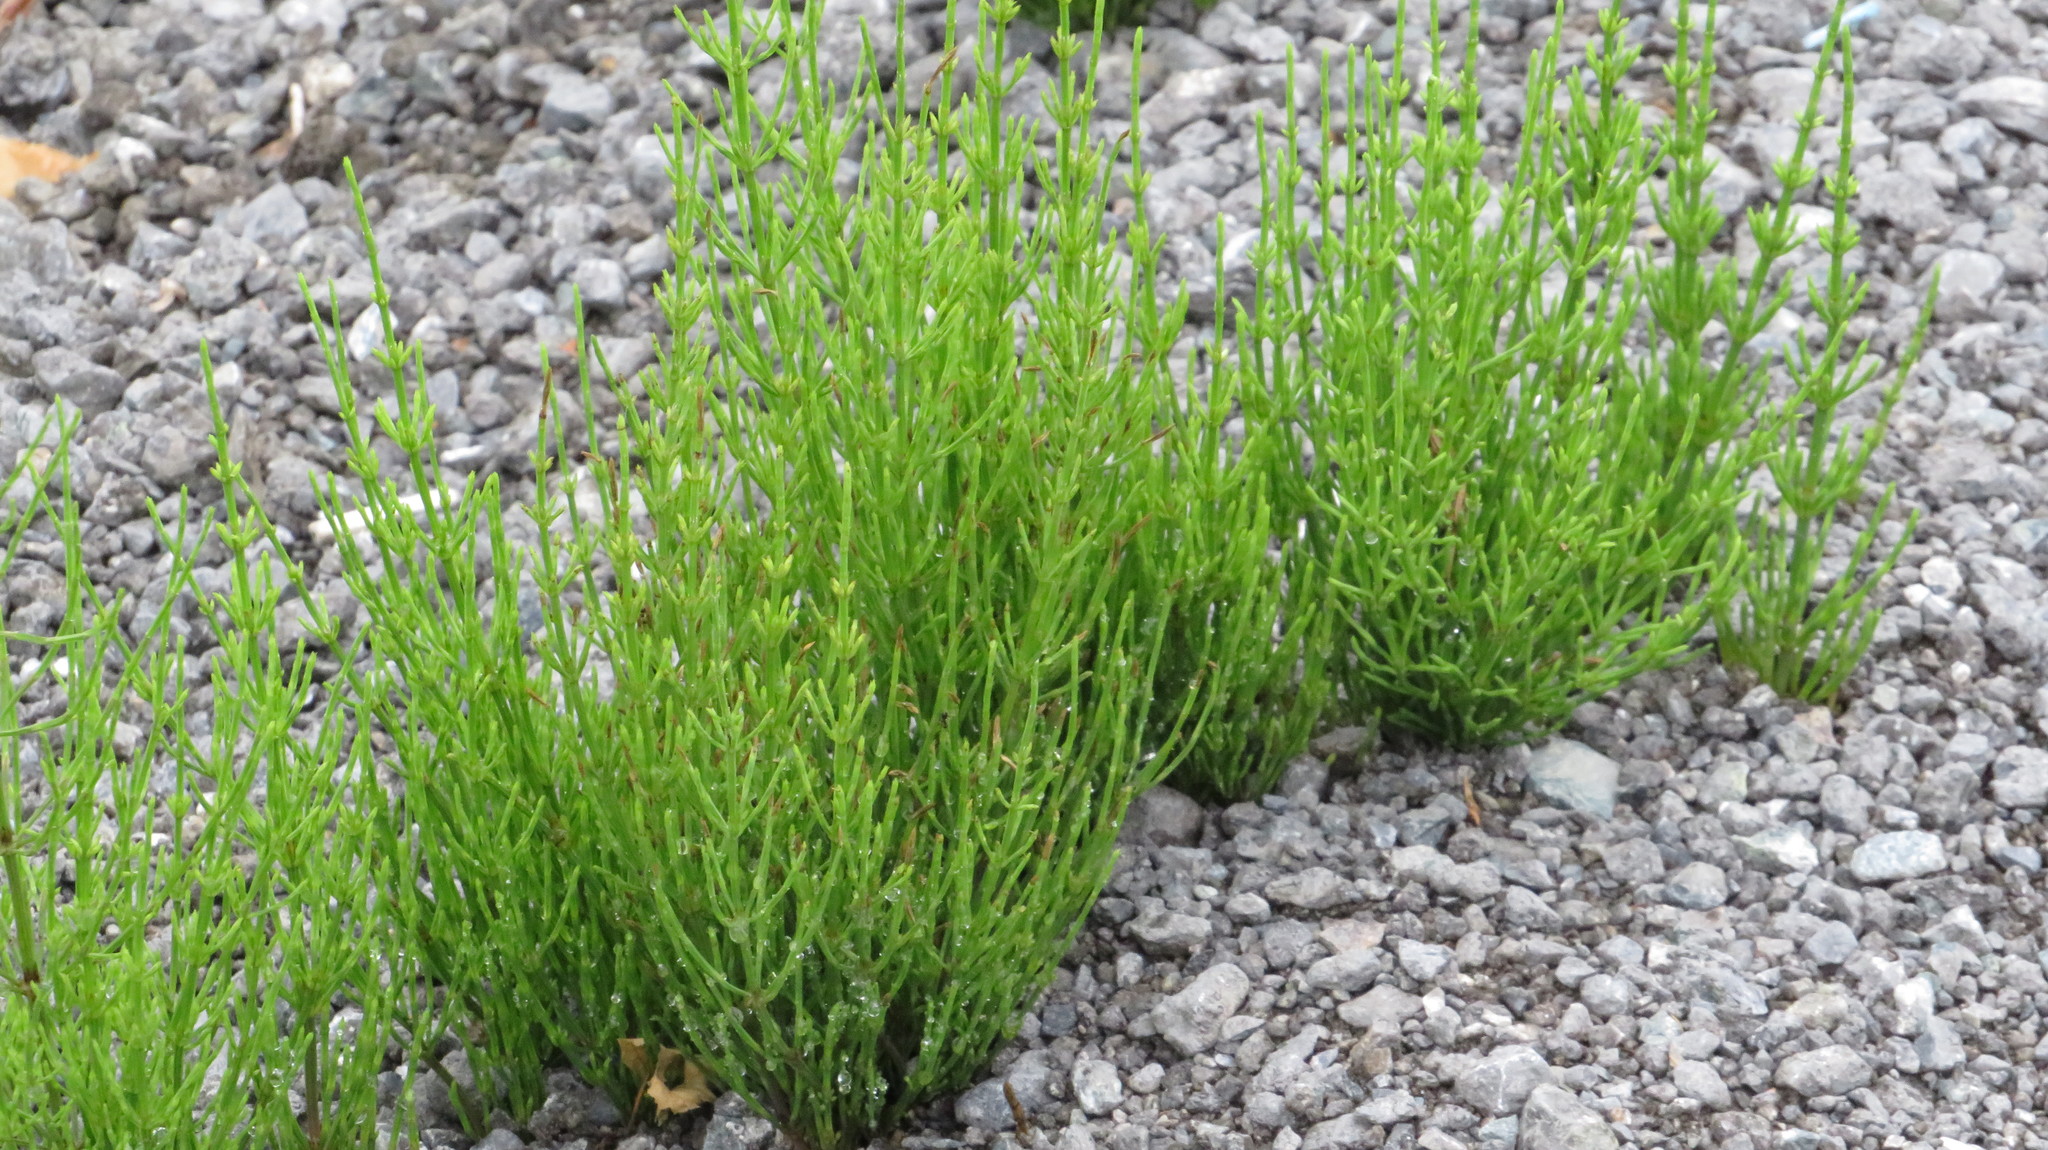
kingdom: Plantae
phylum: Tracheophyta
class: Polypodiopsida
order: Equisetales
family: Equisetaceae
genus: Equisetum
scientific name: Equisetum arvense
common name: Field horsetail
